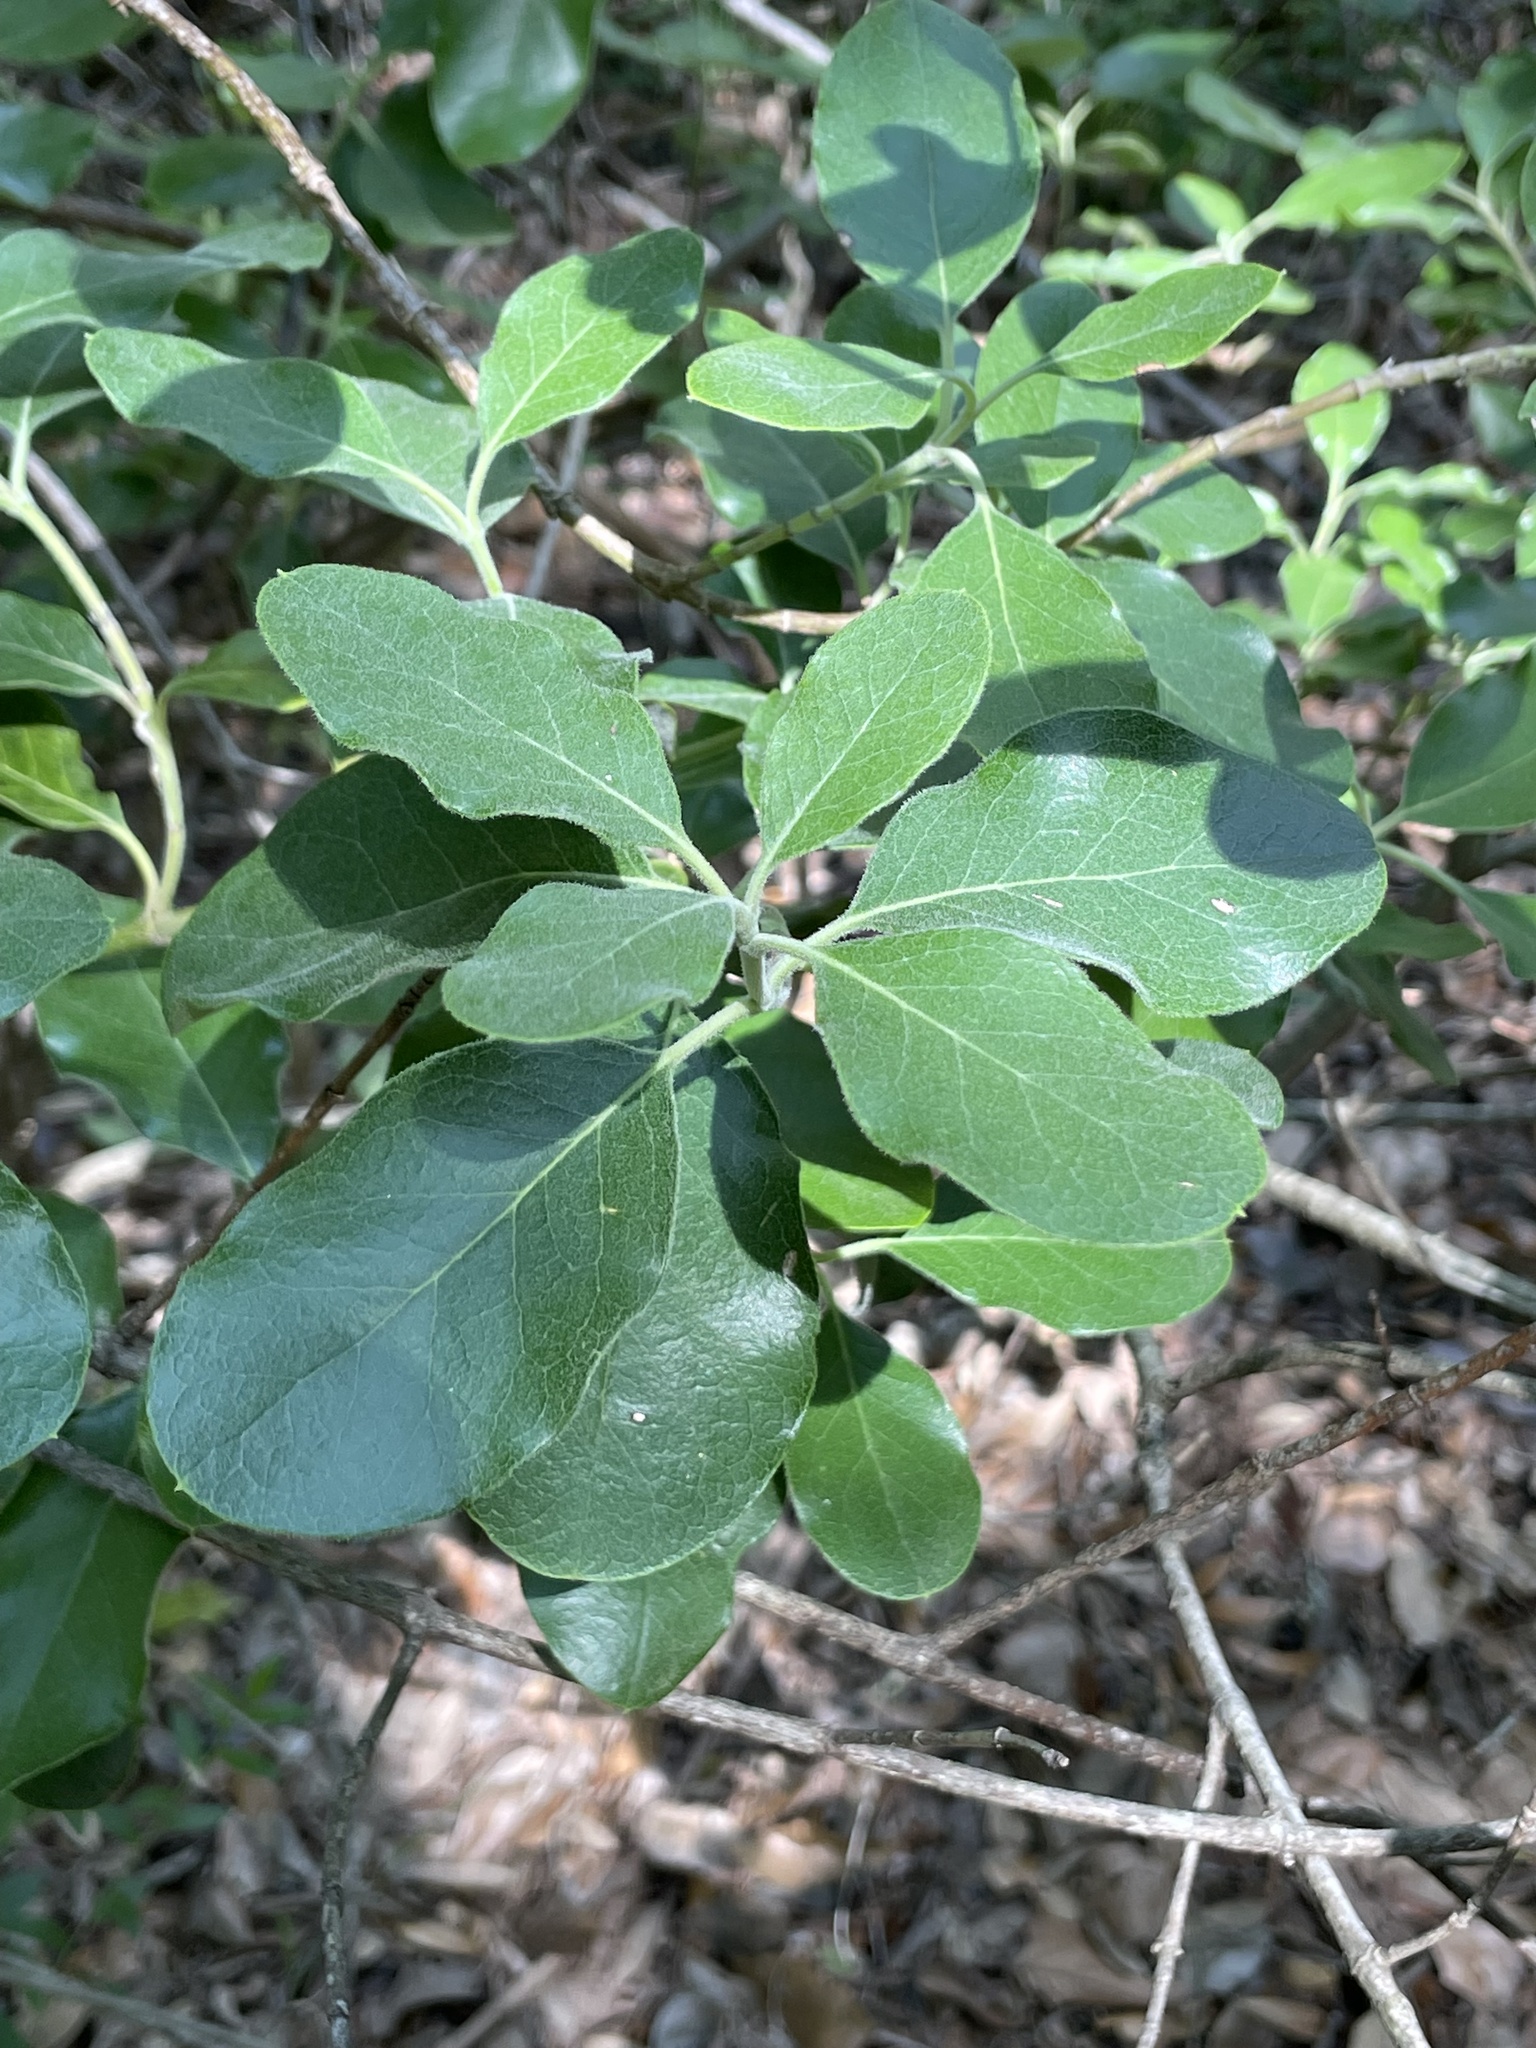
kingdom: Plantae
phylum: Tracheophyta
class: Magnoliopsida
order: Garryales
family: Garryaceae
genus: Garrya
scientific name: Garrya lindheimeri
